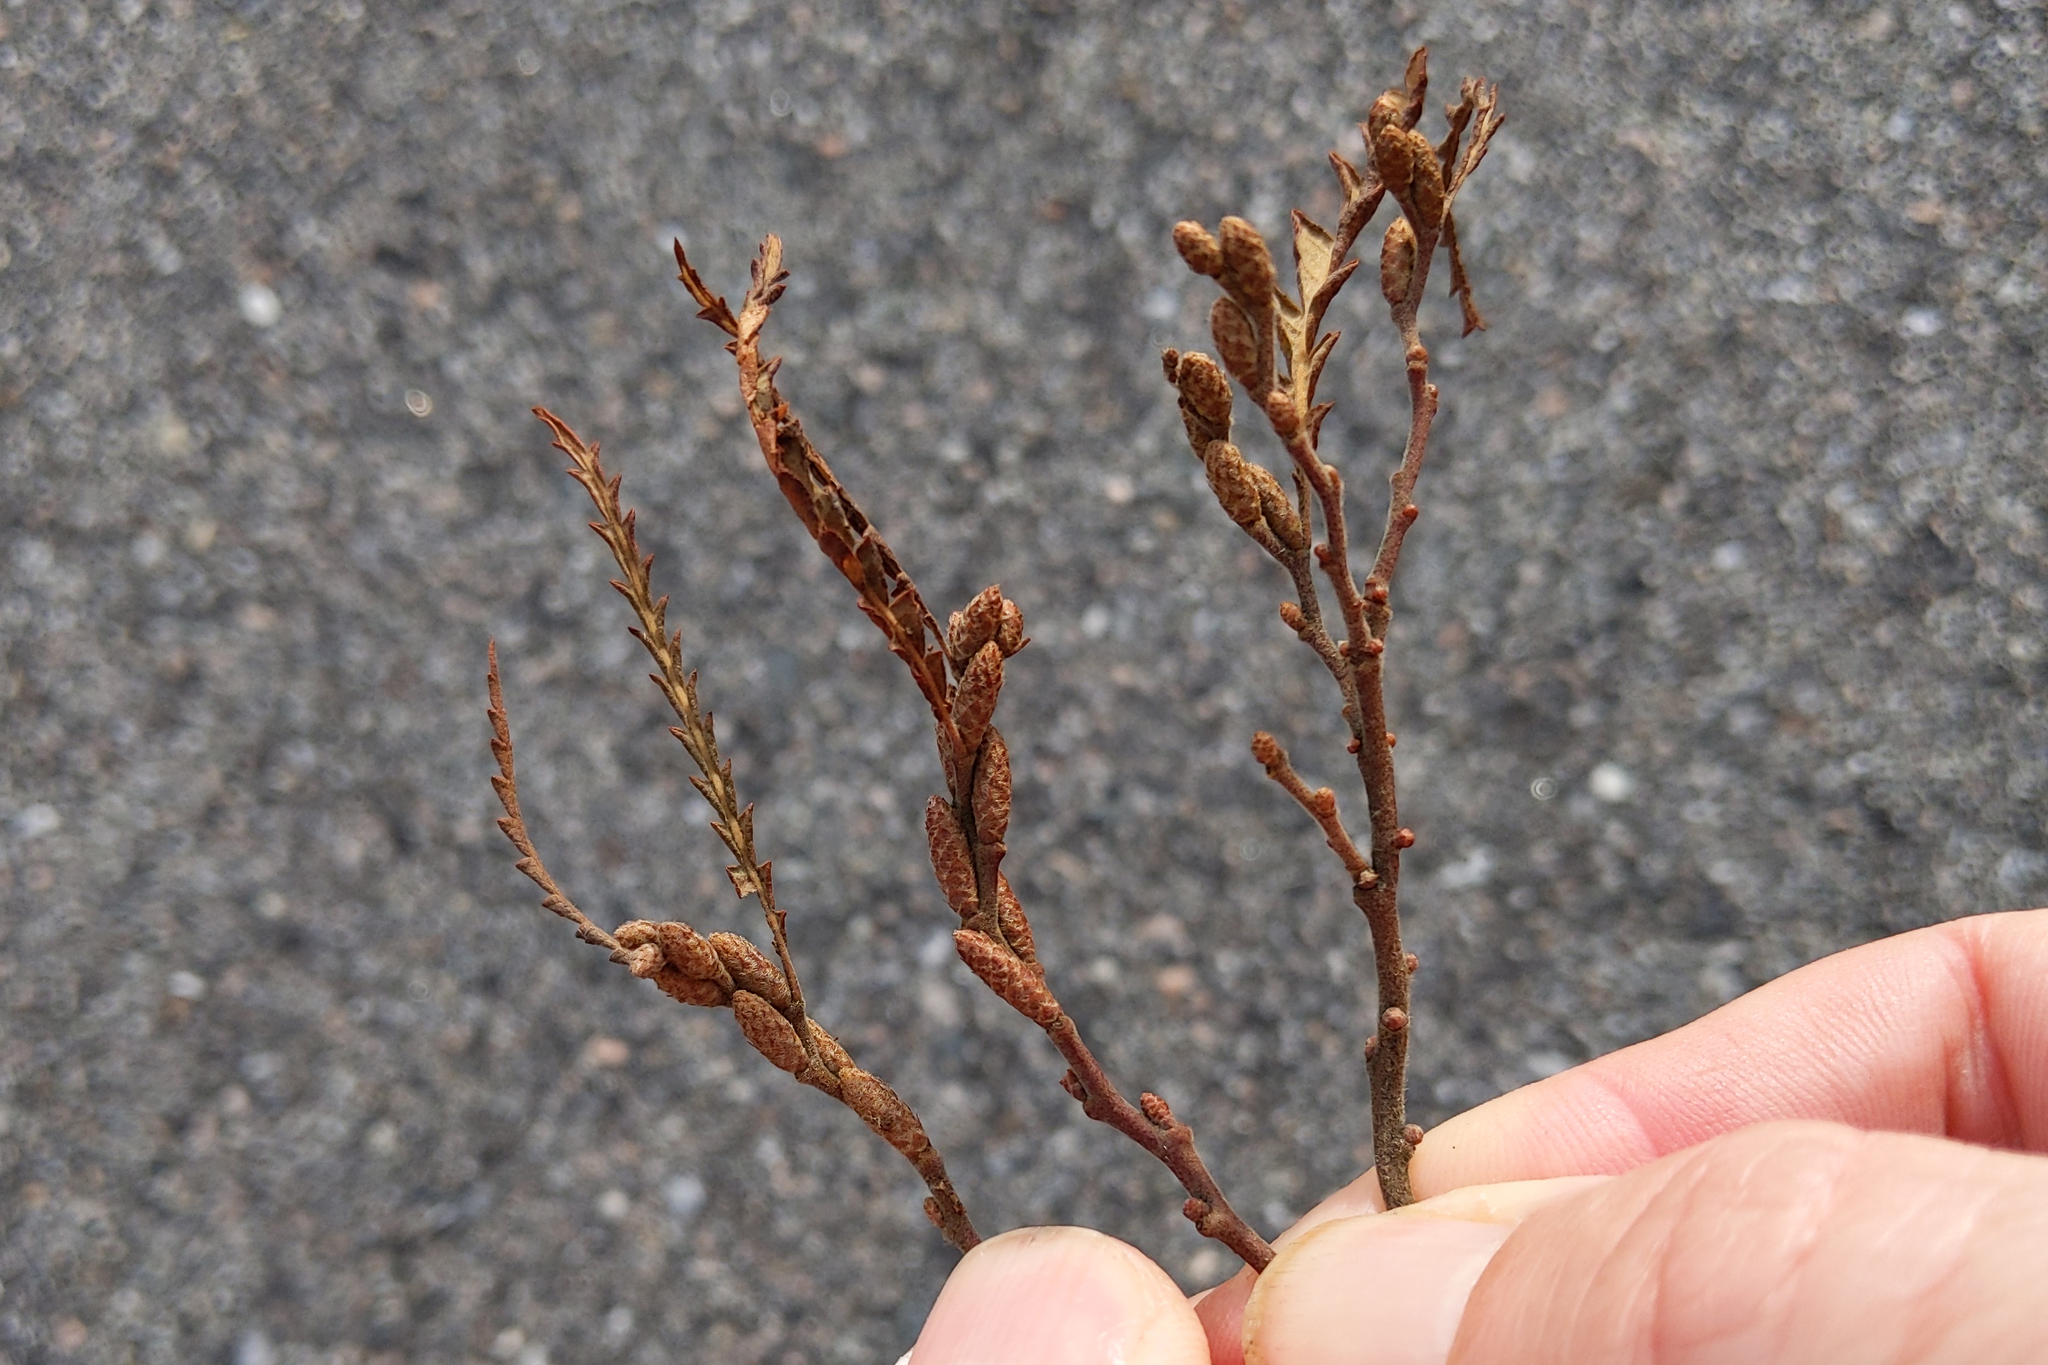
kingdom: Plantae
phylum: Tracheophyta
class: Magnoliopsida
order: Fagales
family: Myricaceae
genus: Comptonia
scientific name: Comptonia peregrina
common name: Sweet-fern
